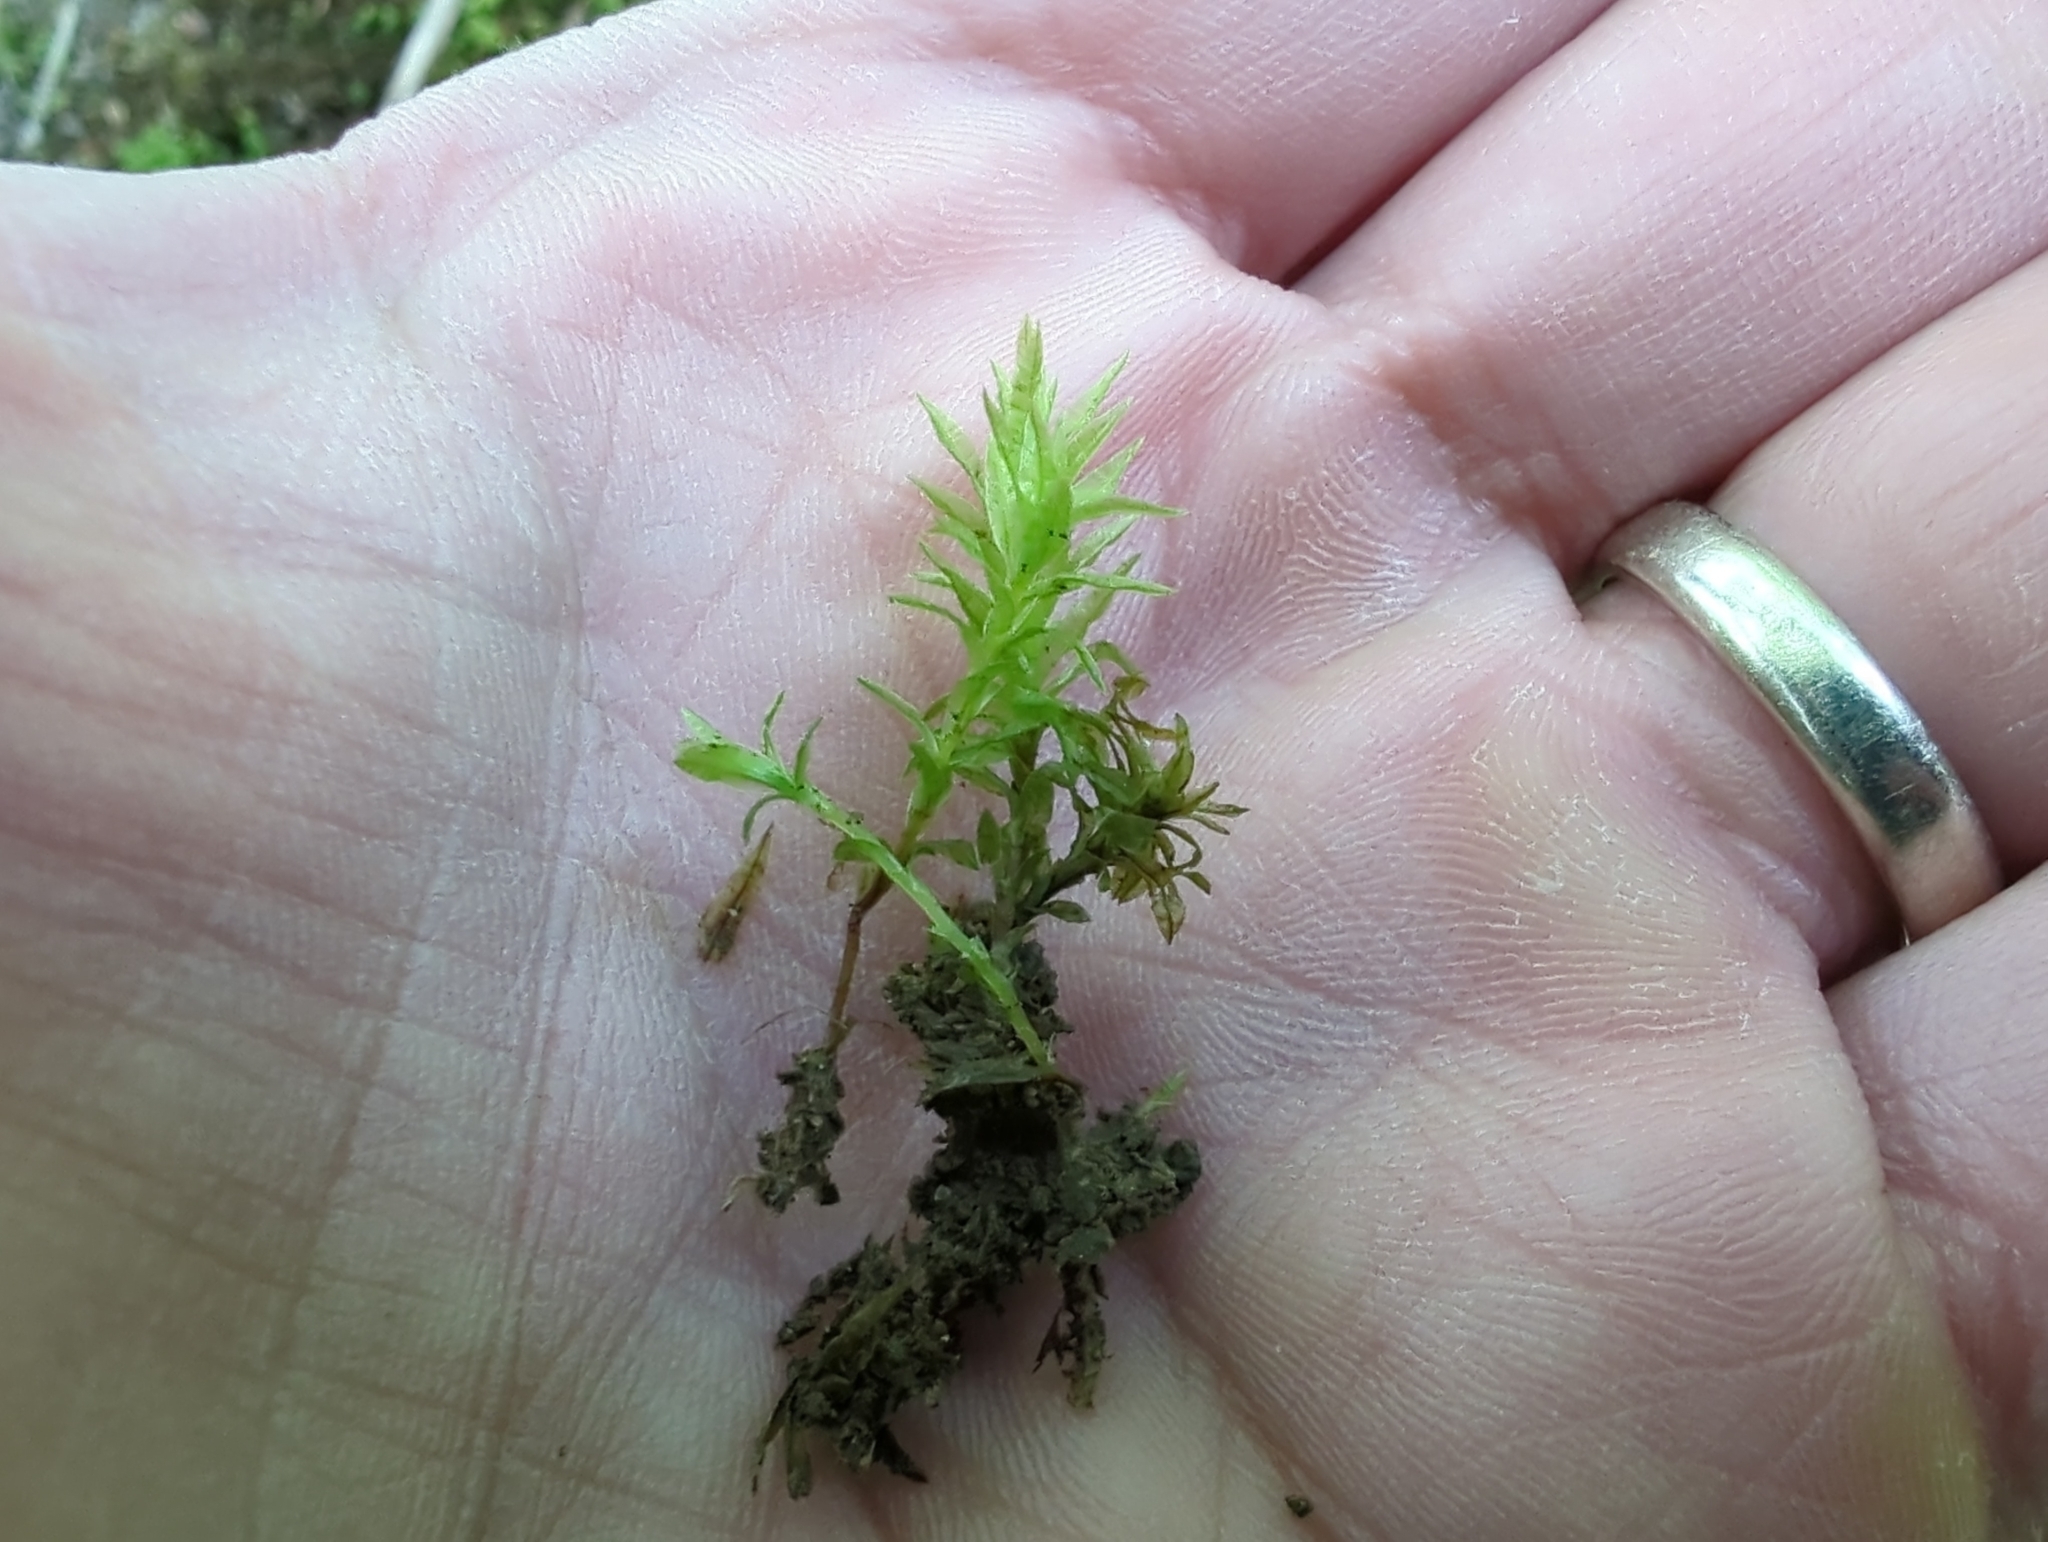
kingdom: Plantae
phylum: Bryophyta
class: Polytrichopsida
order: Polytrichales
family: Polytrichaceae
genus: Atrichum
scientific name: Atrichum undulatum
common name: Common smoothcap
